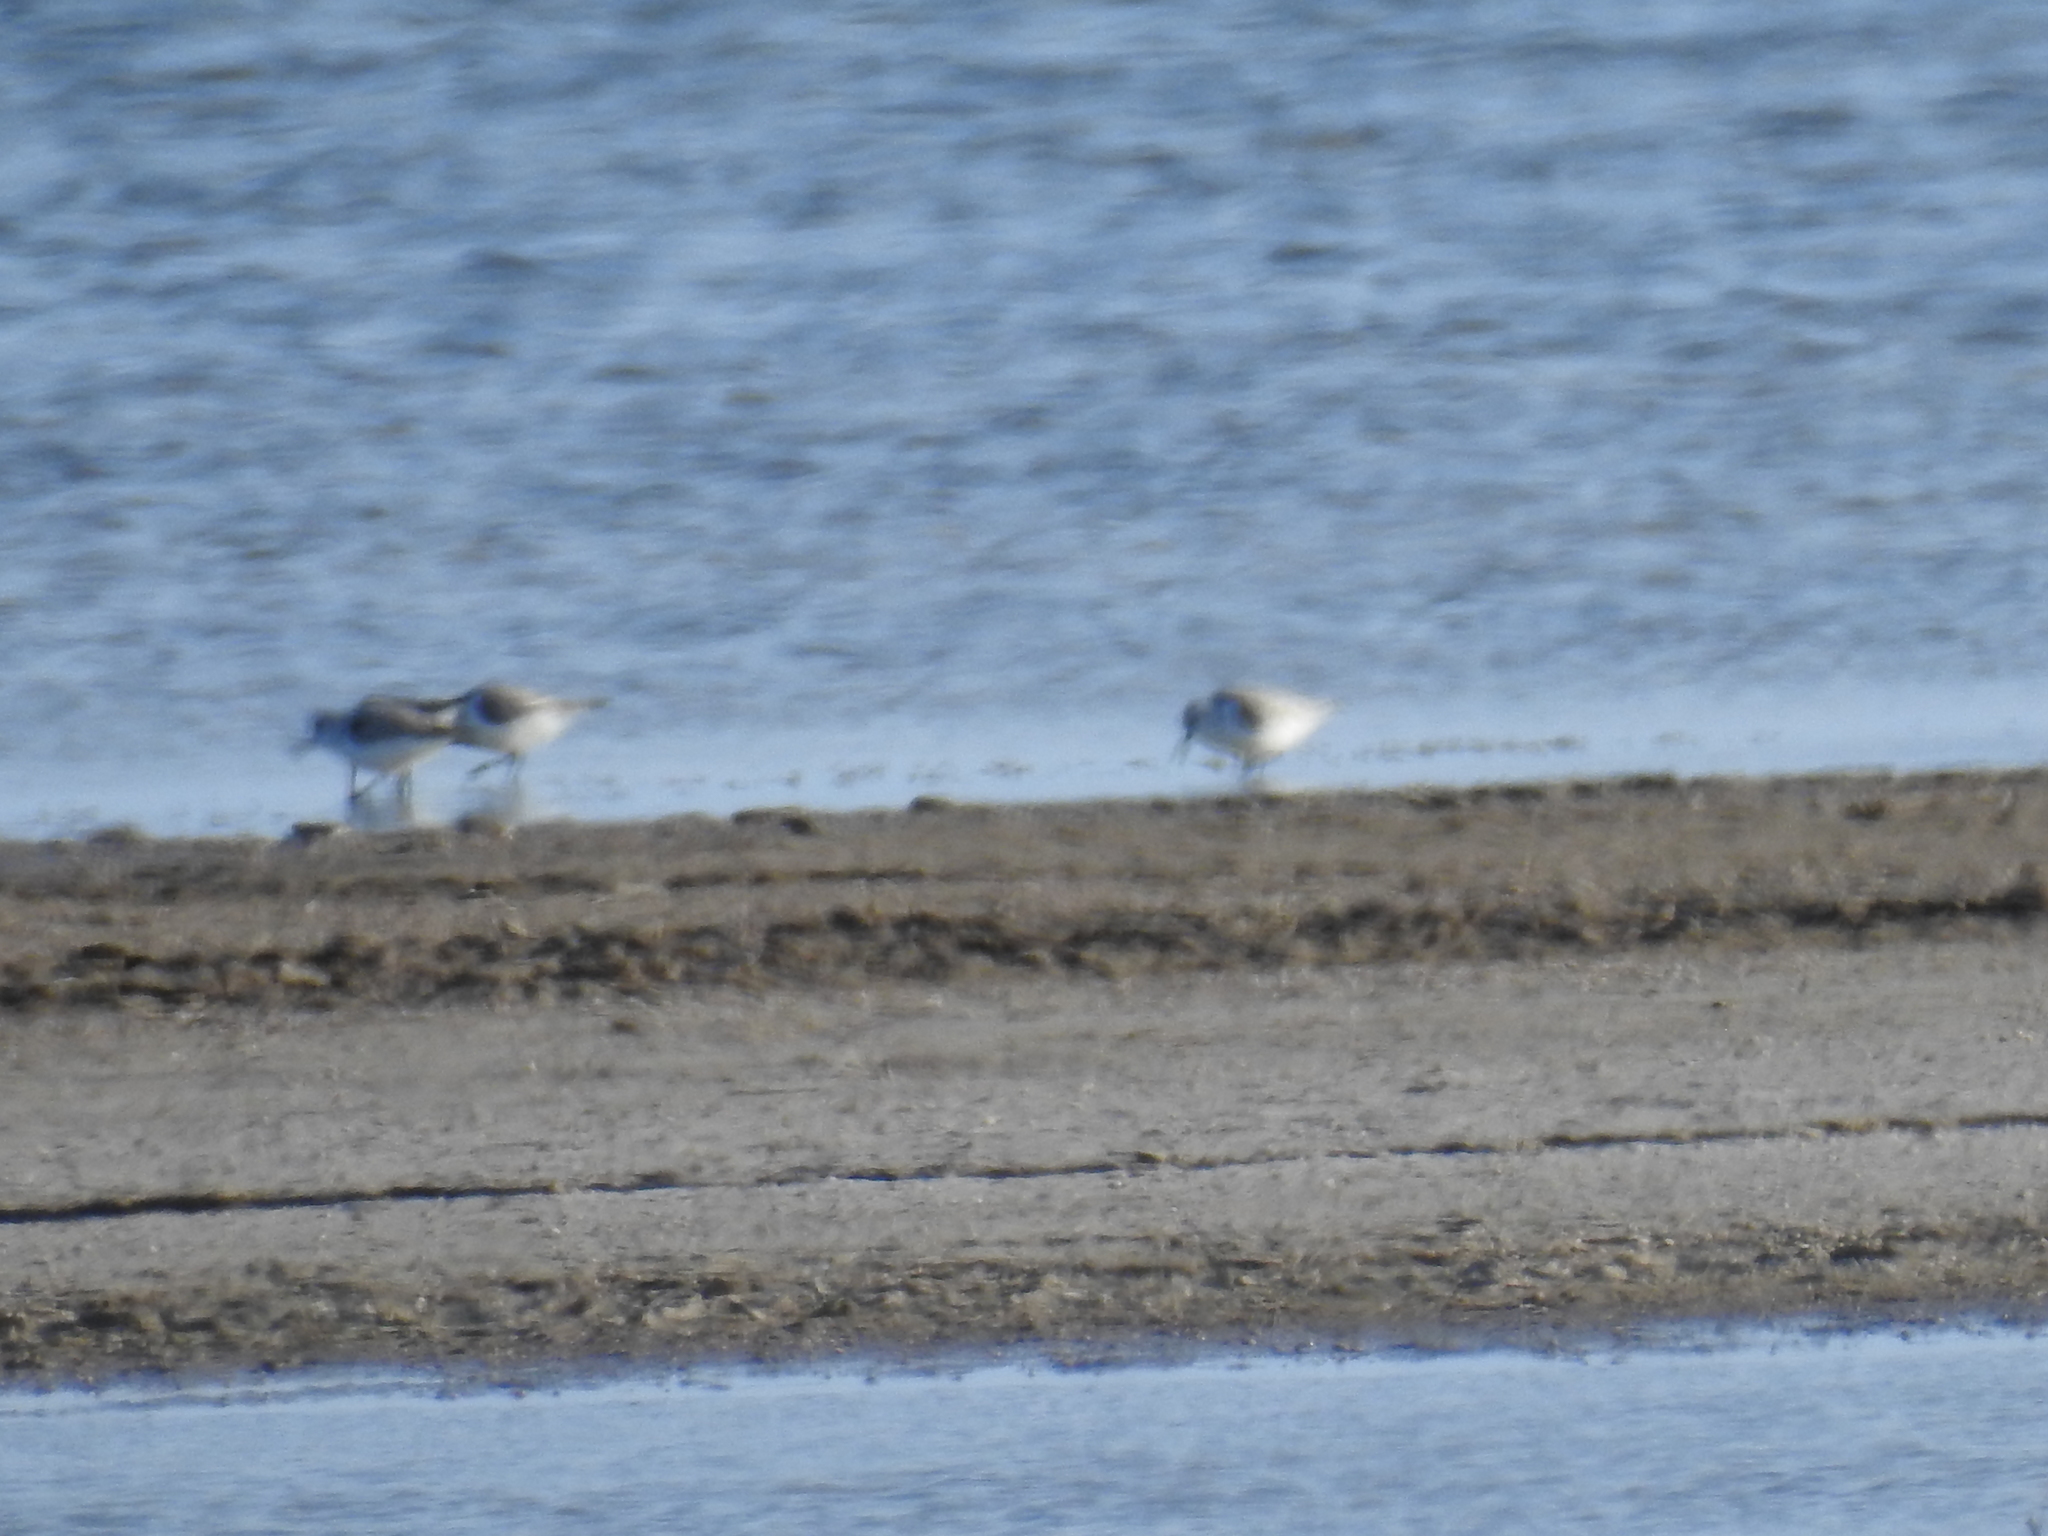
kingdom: Animalia
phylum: Chordata
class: Aves
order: Charadriiformes
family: Scolopacidae
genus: Calidris
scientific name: Calidris alba
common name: Sanderling
